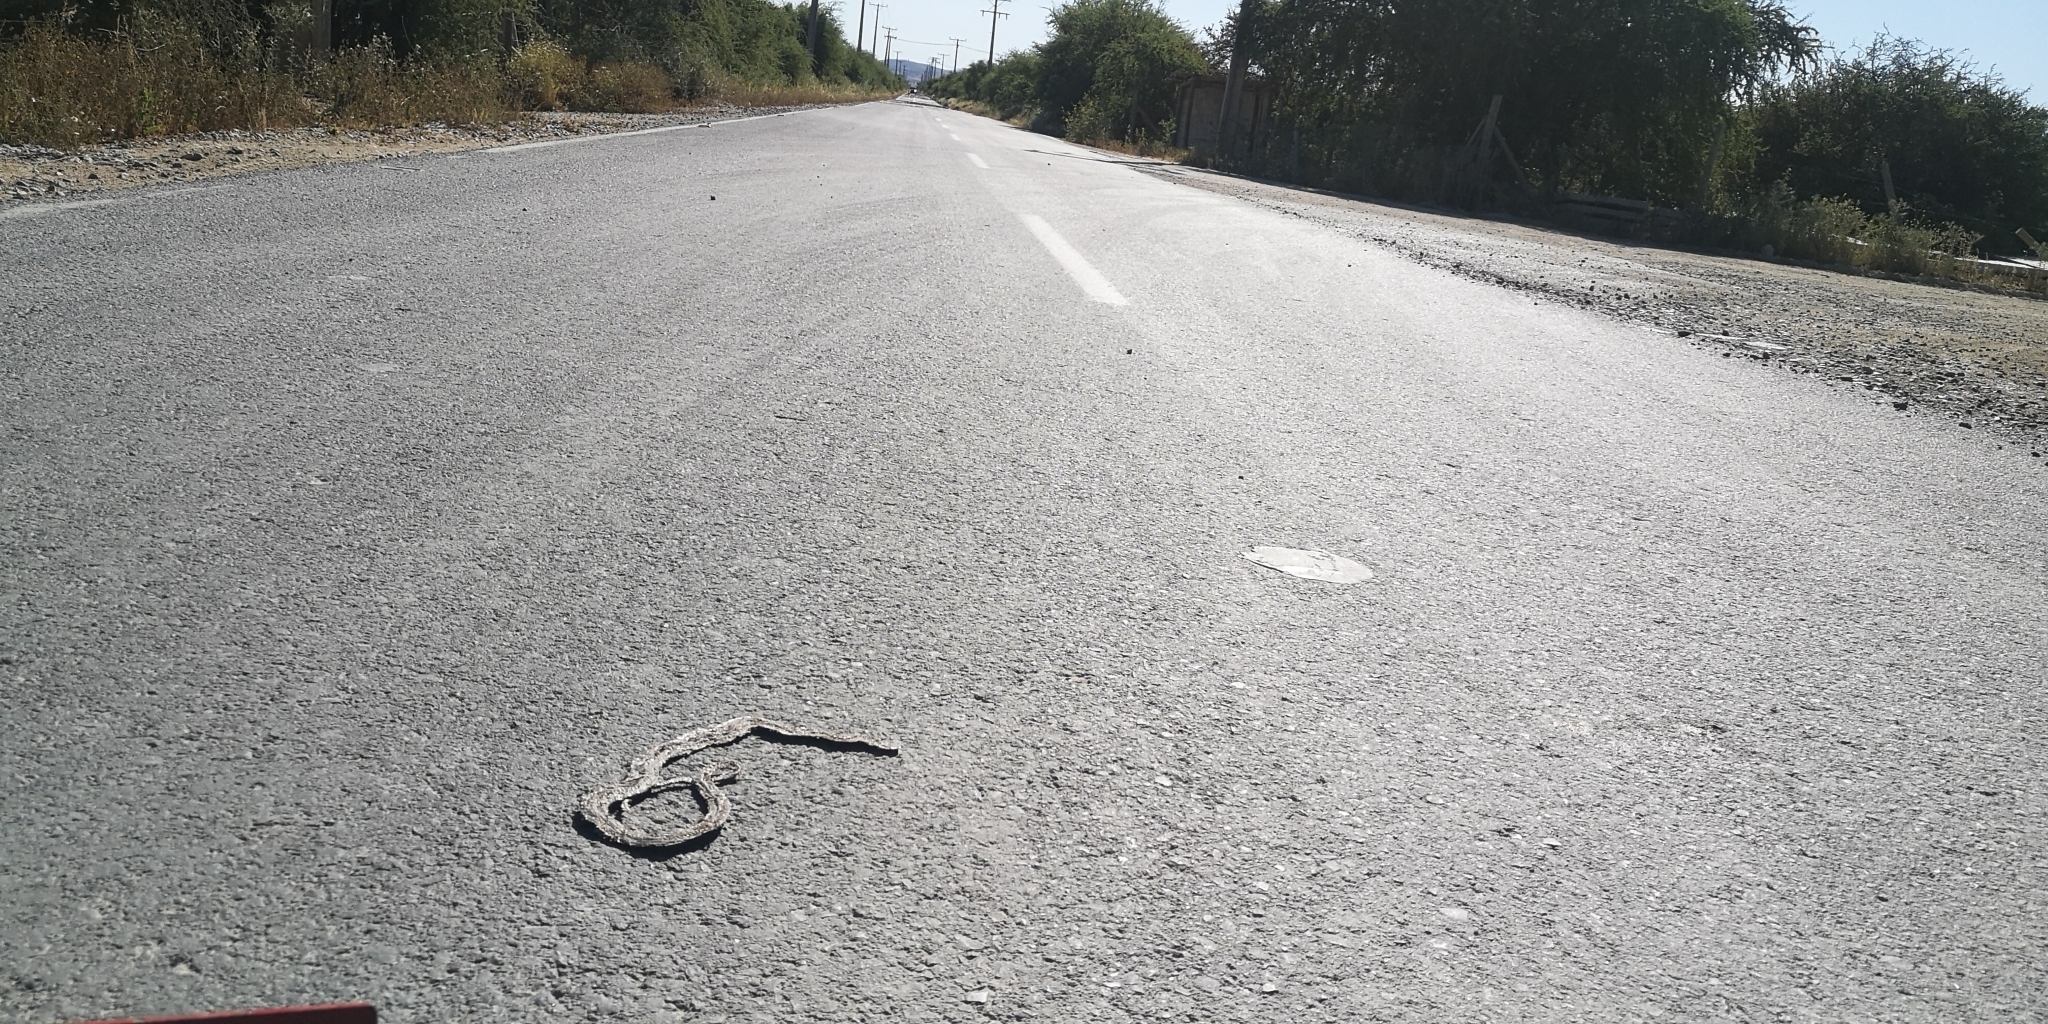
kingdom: Animalia
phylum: Chordata
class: Squamata
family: Colubridae
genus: Philodryas
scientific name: Philodryas chamissonis
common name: Chilean green racer
